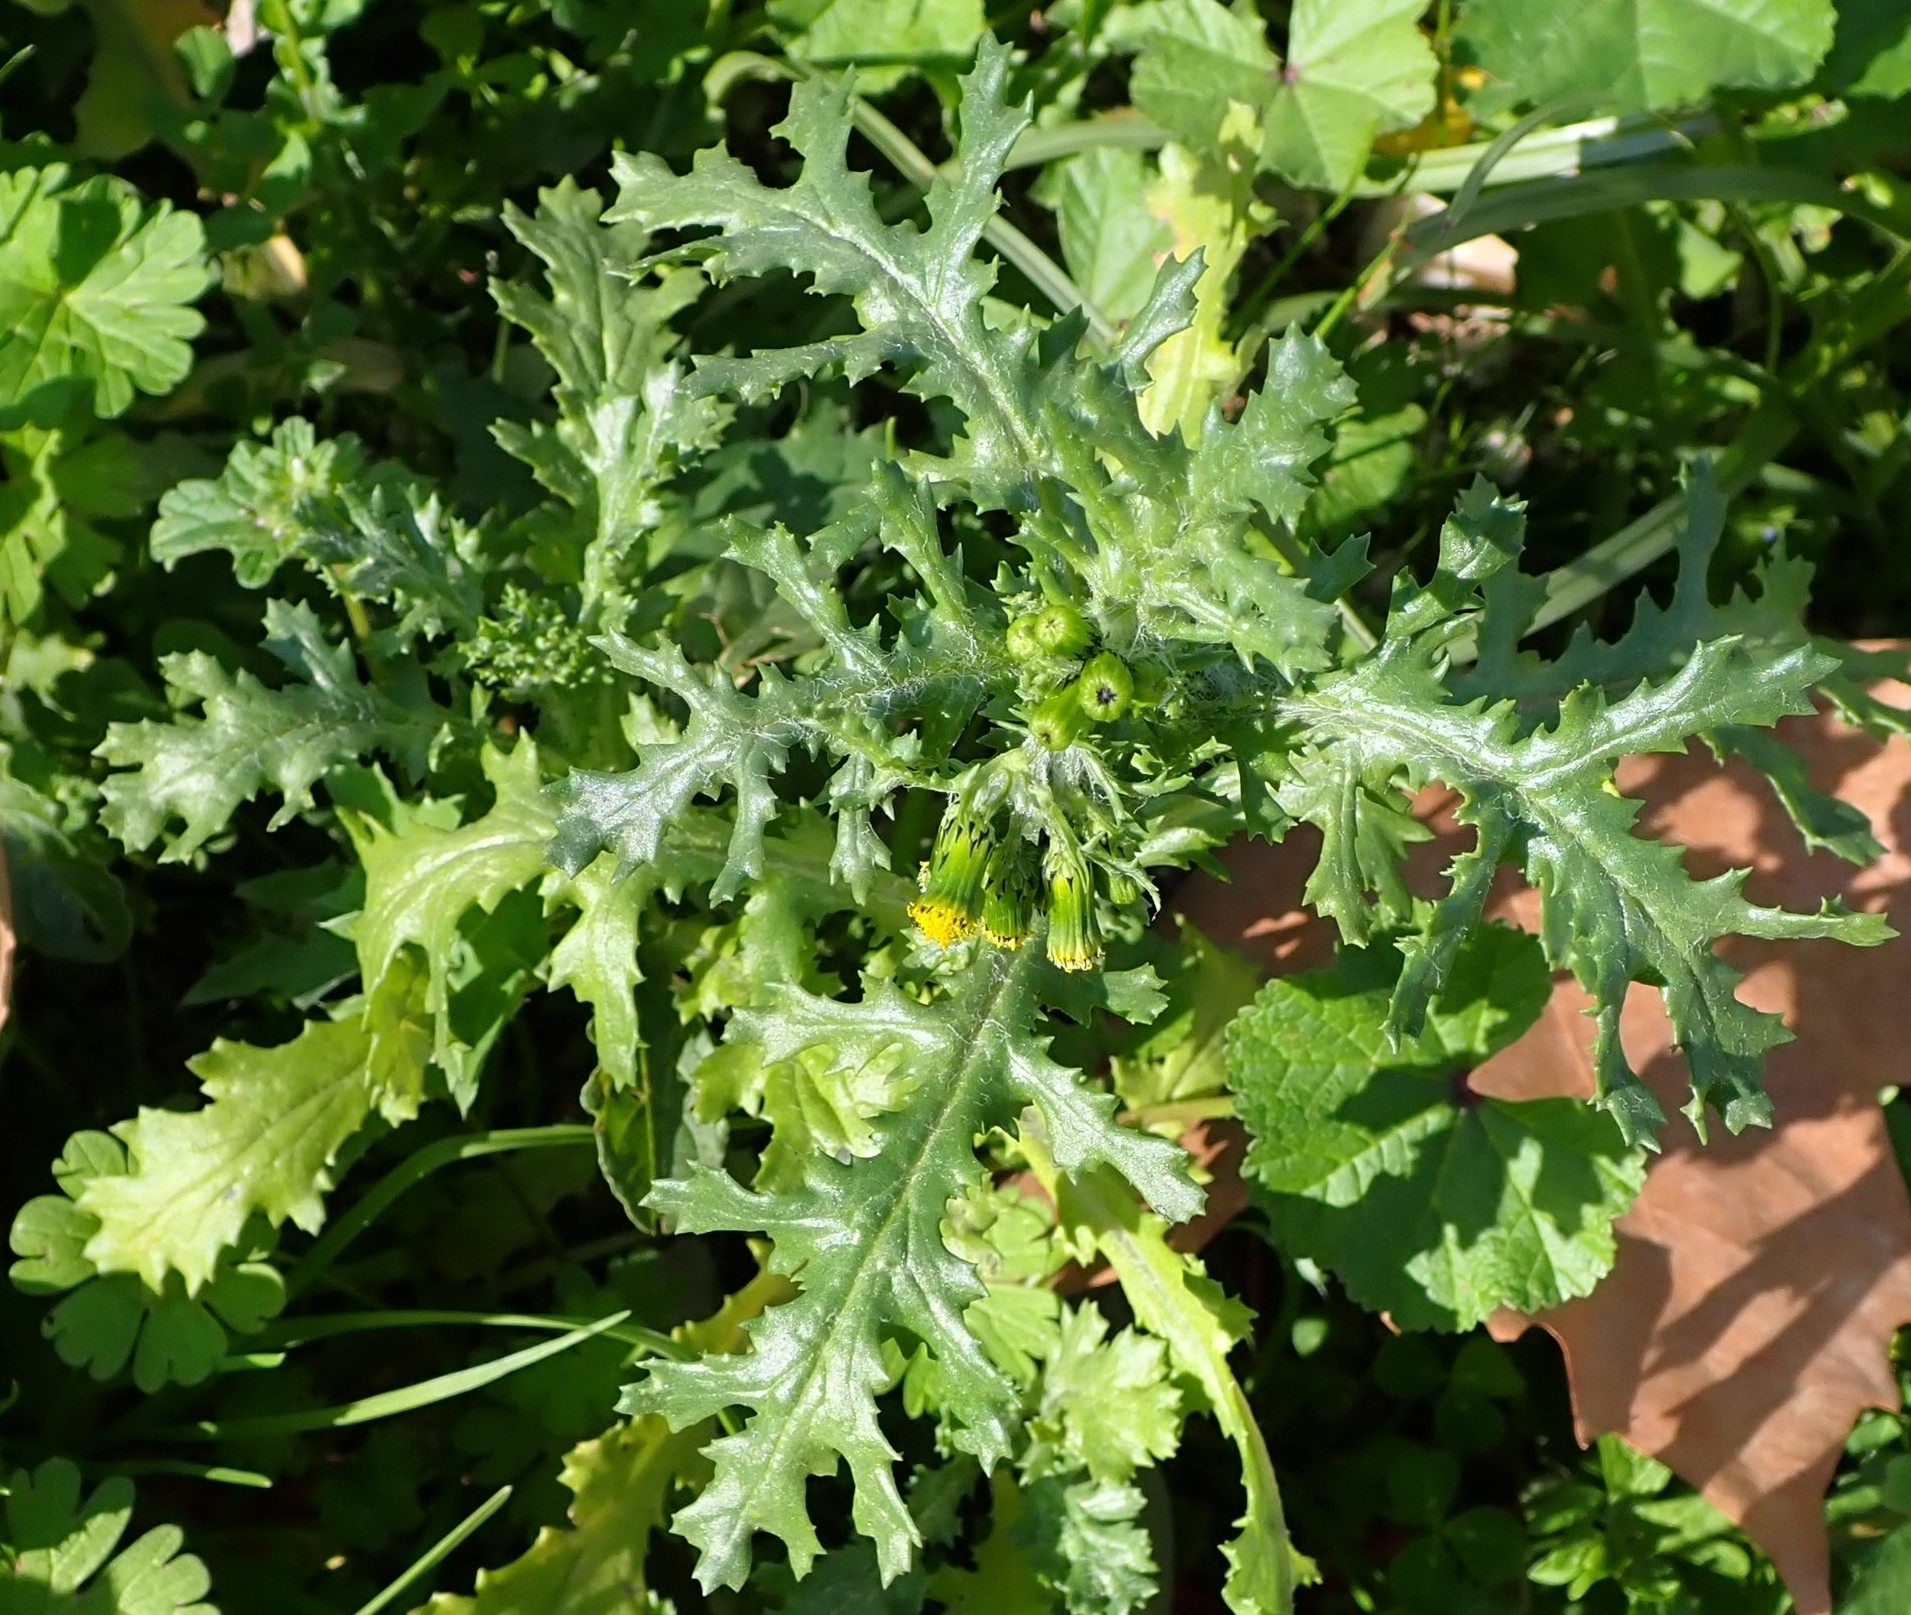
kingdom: Plantae
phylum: Tracheophyta
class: Magnoliopsida
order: Asterales
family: Asteraceae
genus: Senecio
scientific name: Senecio vulgaris
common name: Old-man-in-the-spring
